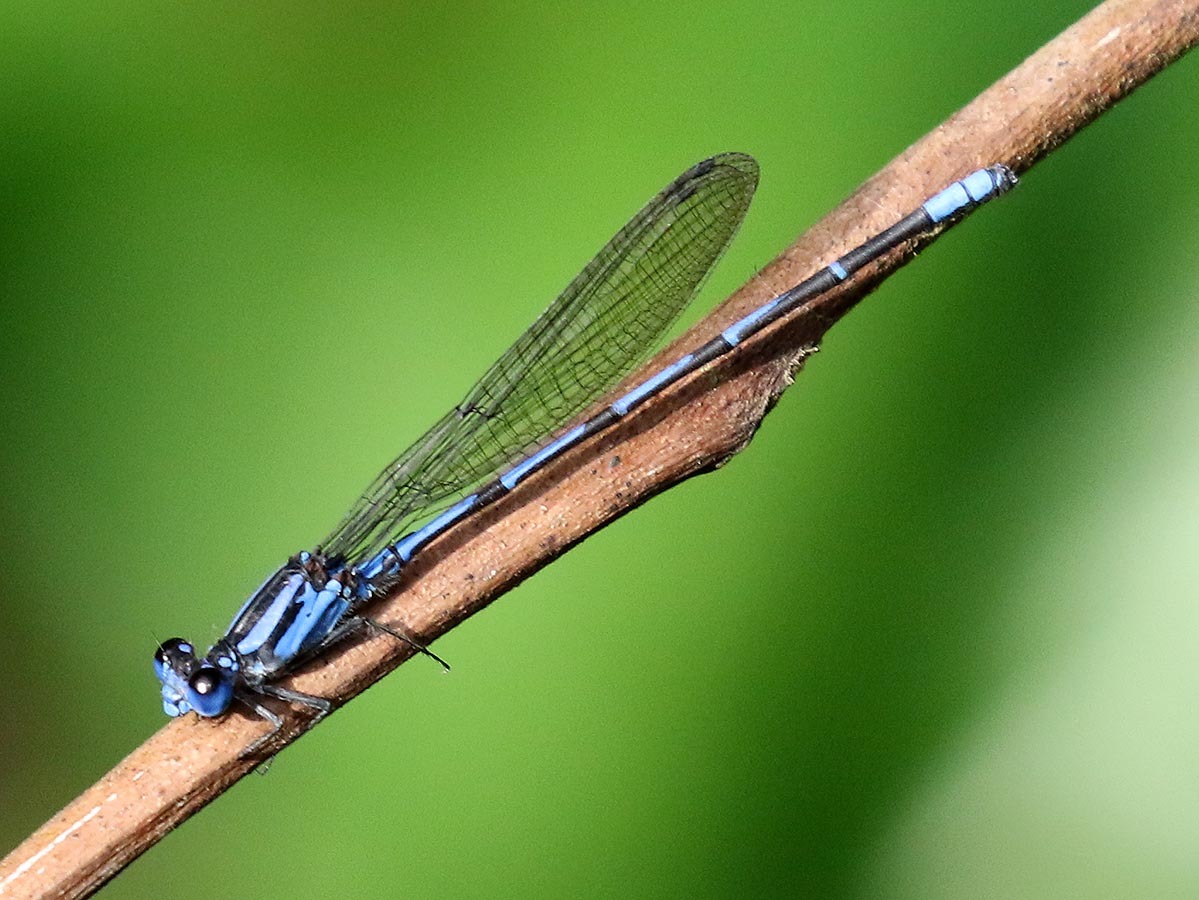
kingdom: Animalia
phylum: Arthropoda
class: Insecta
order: Odonata
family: Coenagrionidae
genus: Argia
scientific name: Argia insipida
